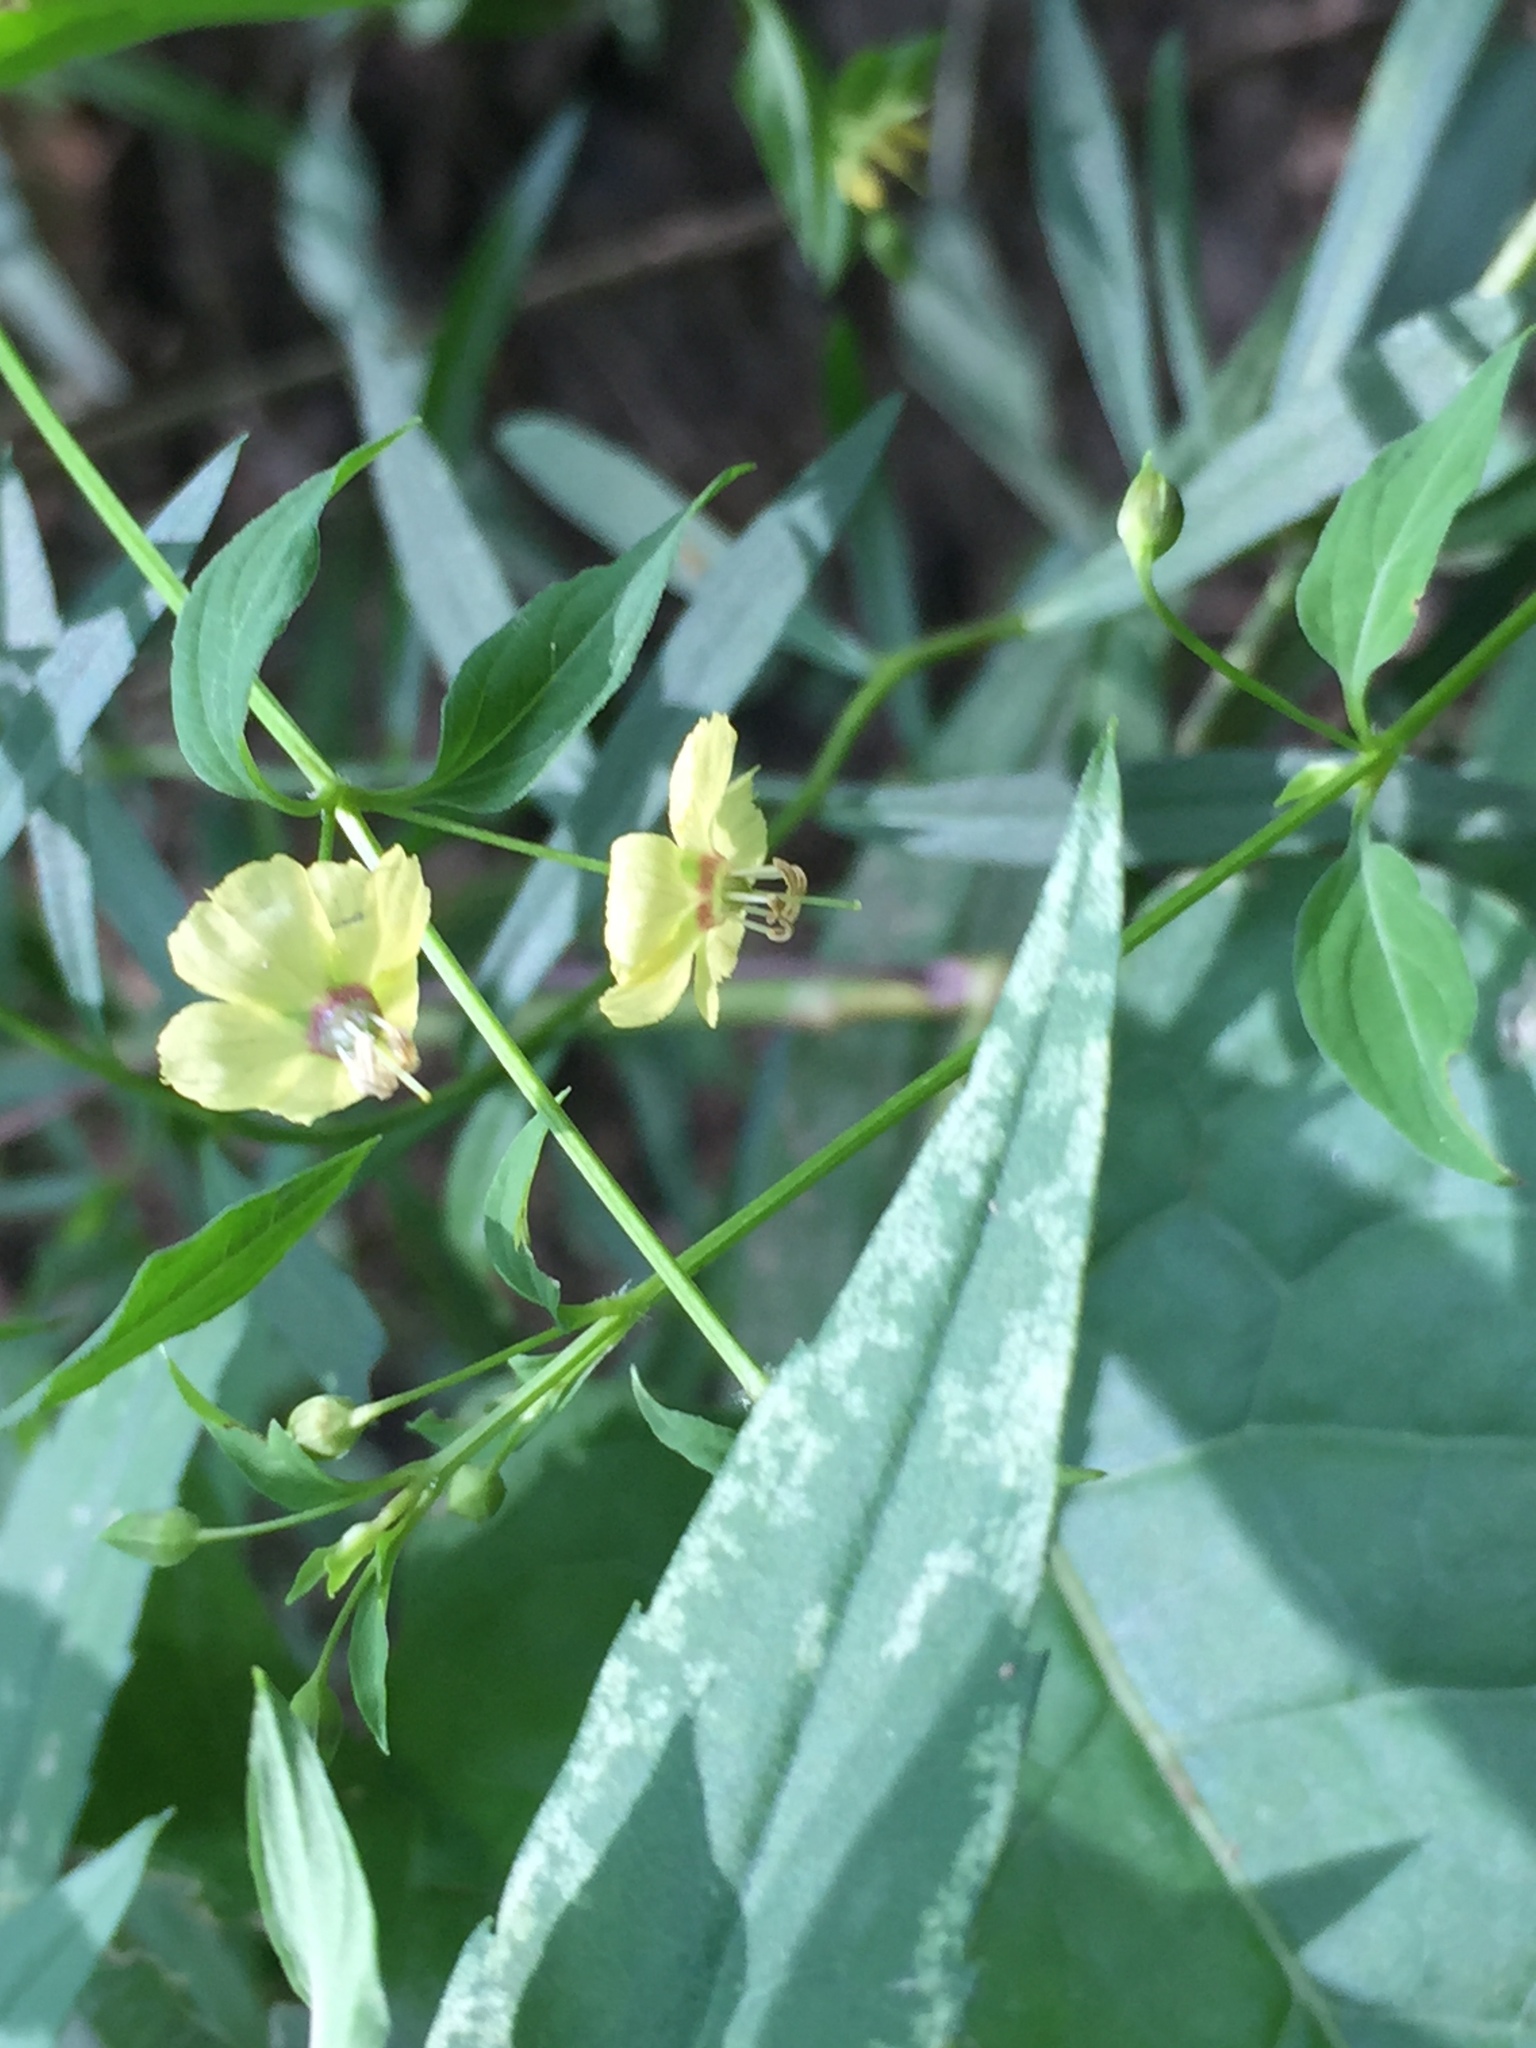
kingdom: Plantae
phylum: Tracheophyta
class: Magnoliopsida
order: Ericales
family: Primulaceae
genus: Lysimachia
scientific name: Lysimachia radicans
